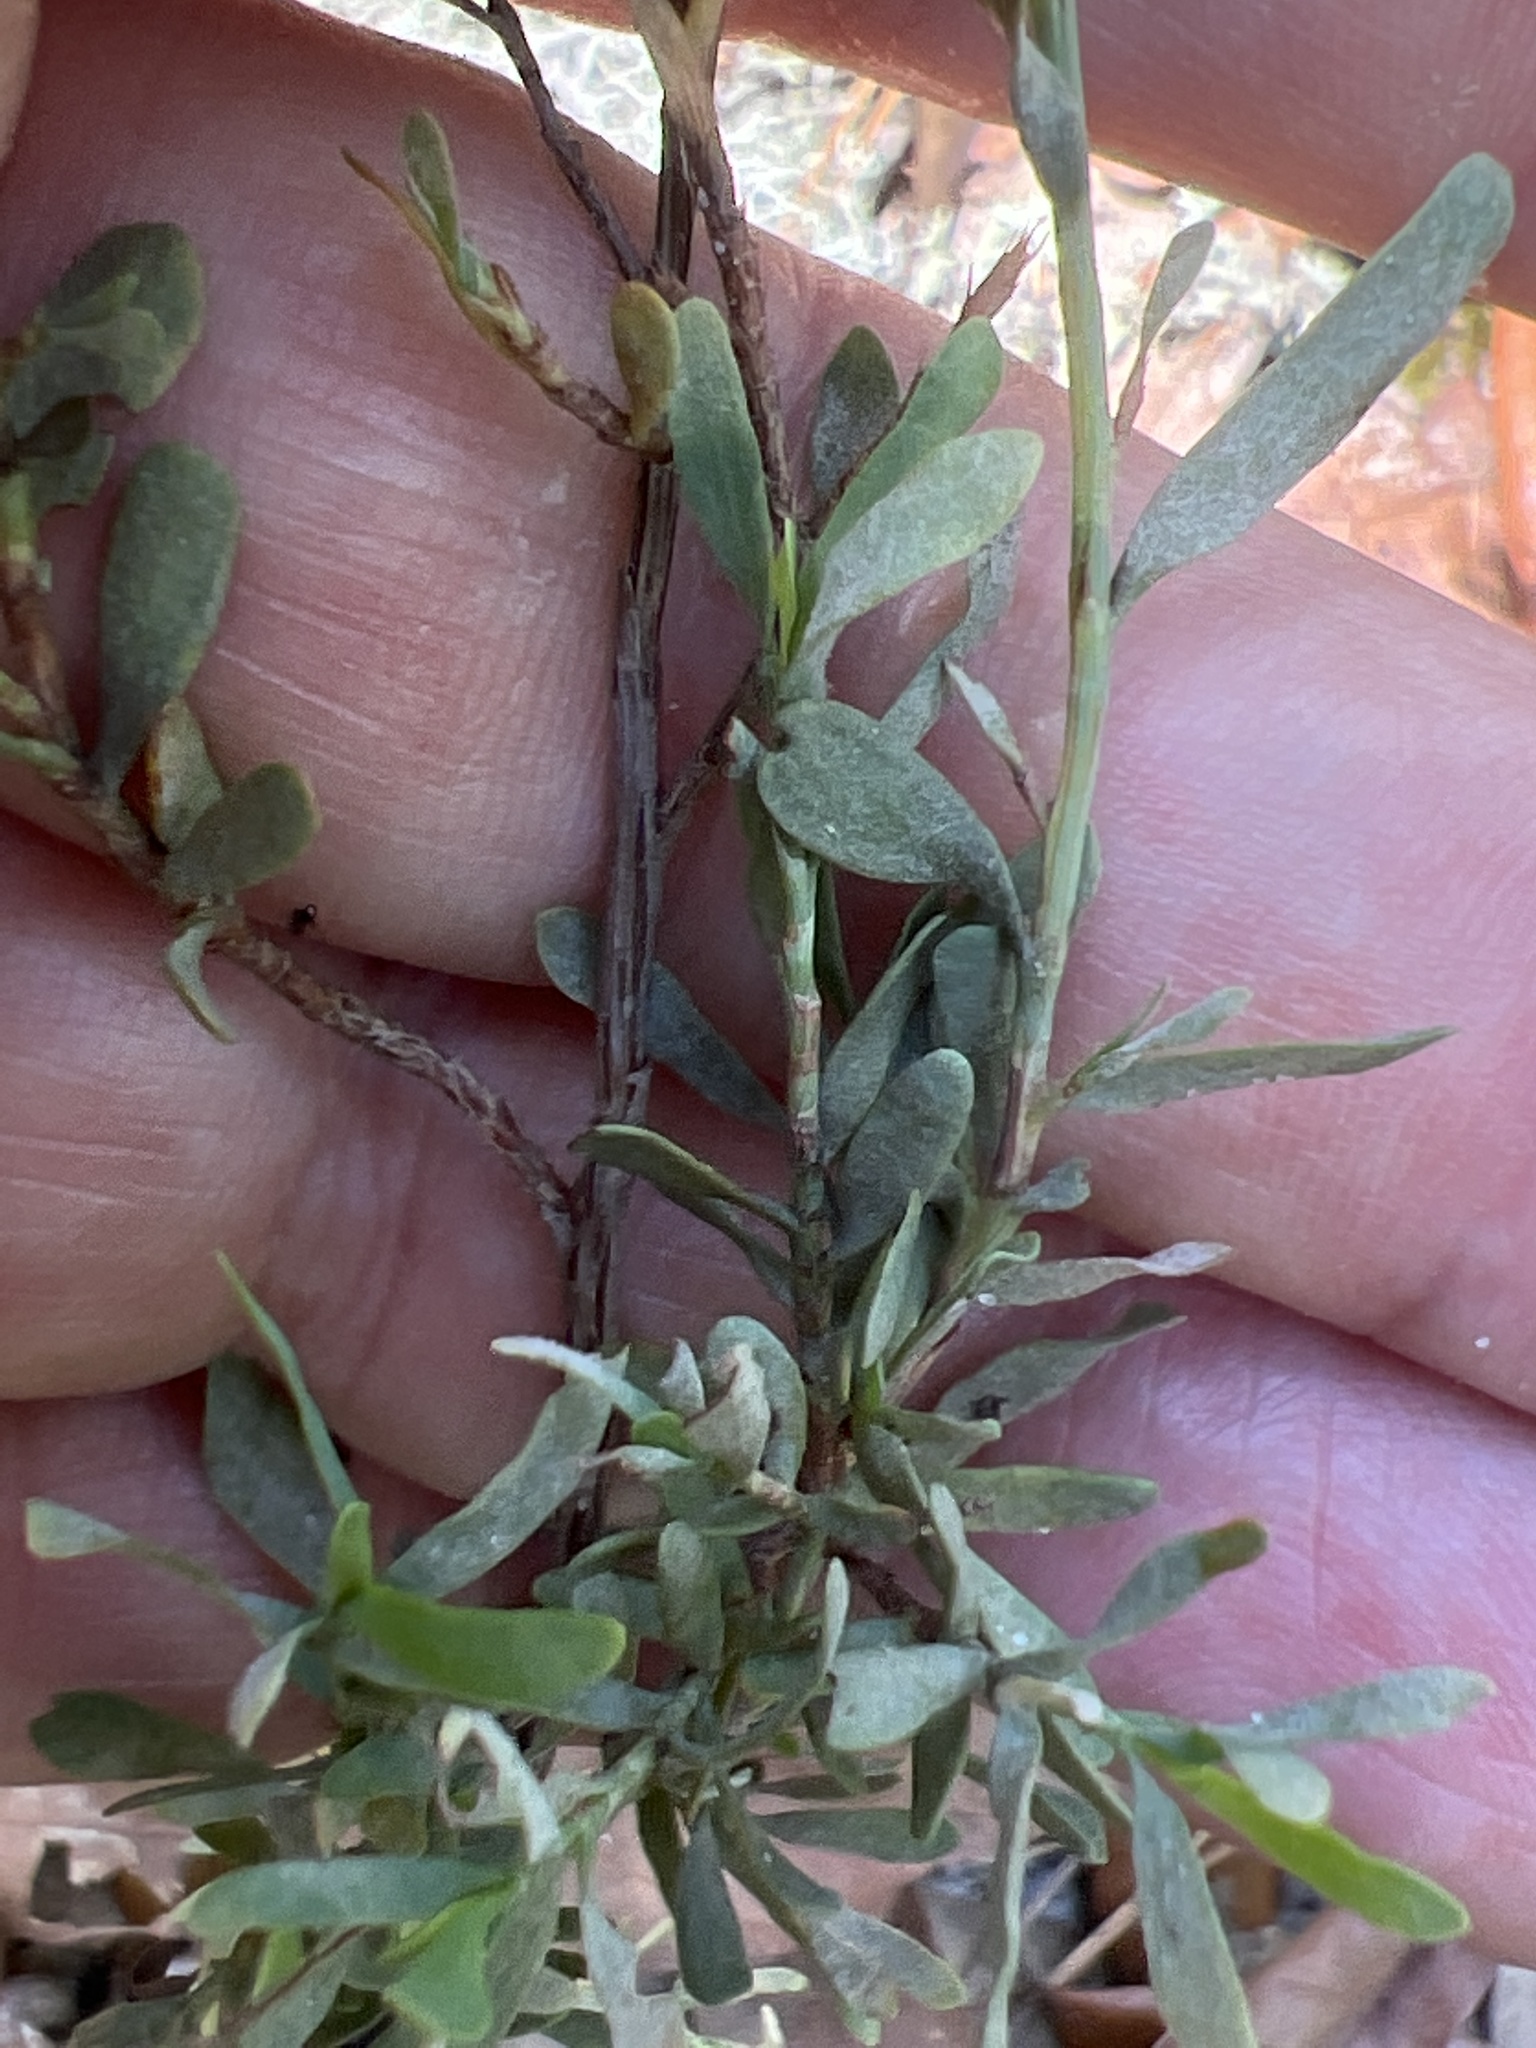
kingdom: Plantae
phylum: Tracheophyta
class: Magnoliopsida
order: Caryophyllales
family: Polygonaceae
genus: Polygonella
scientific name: Polygonella polygama
